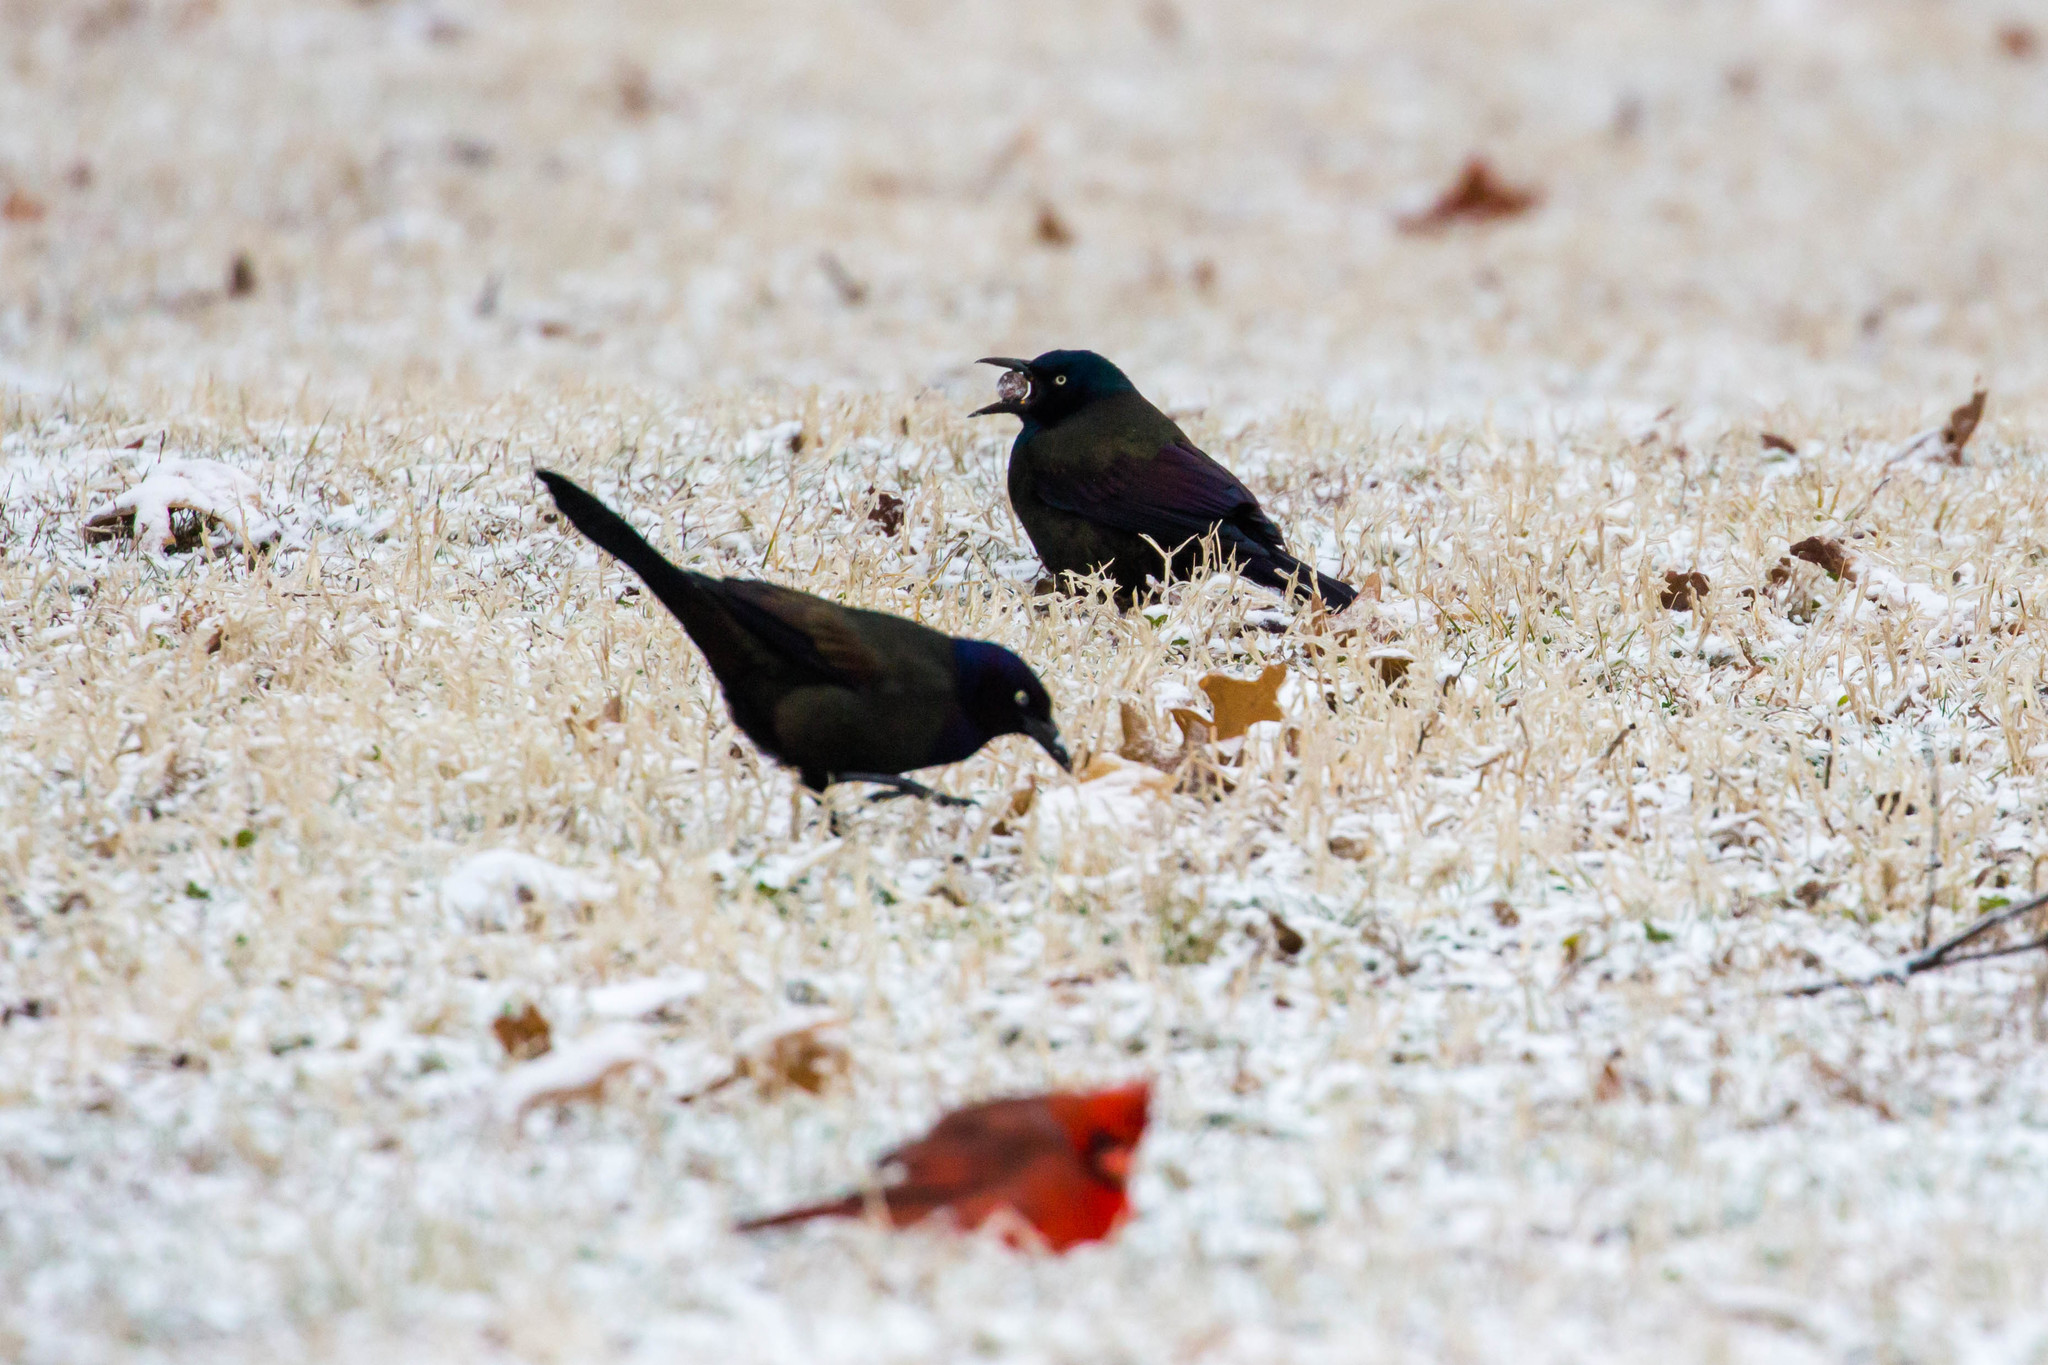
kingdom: Animalia
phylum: Chordata
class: Aves
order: Passeriformes
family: Icteridae
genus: Quiscalus
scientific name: Quiscalus quiscula
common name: Common grackle
